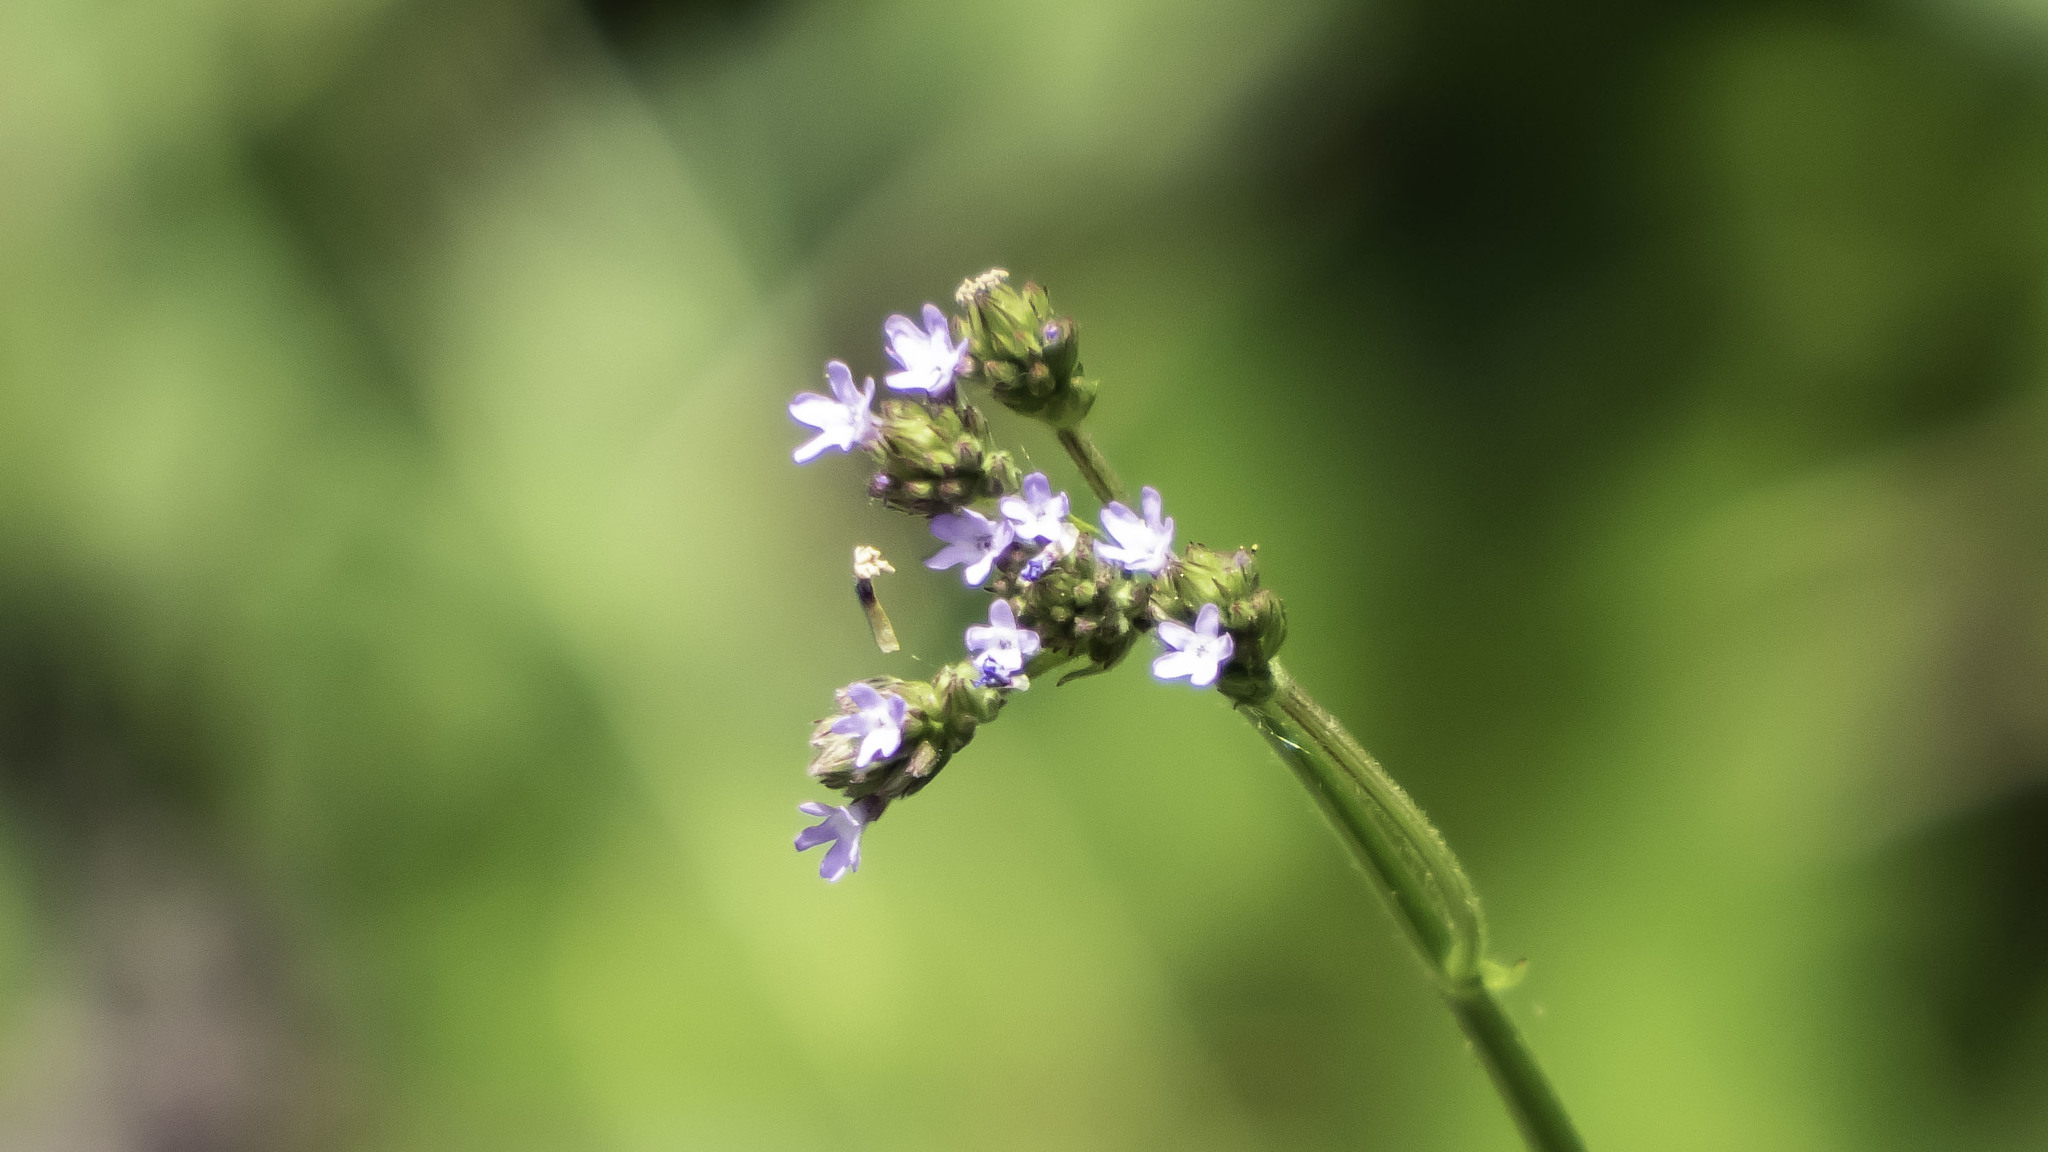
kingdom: Plantae
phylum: Tracheophyta
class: Magnoliopsida
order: Lamiales
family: Verbenaceae
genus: Verbena
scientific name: Verbena brasiliensis
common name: Brazilian vervain
